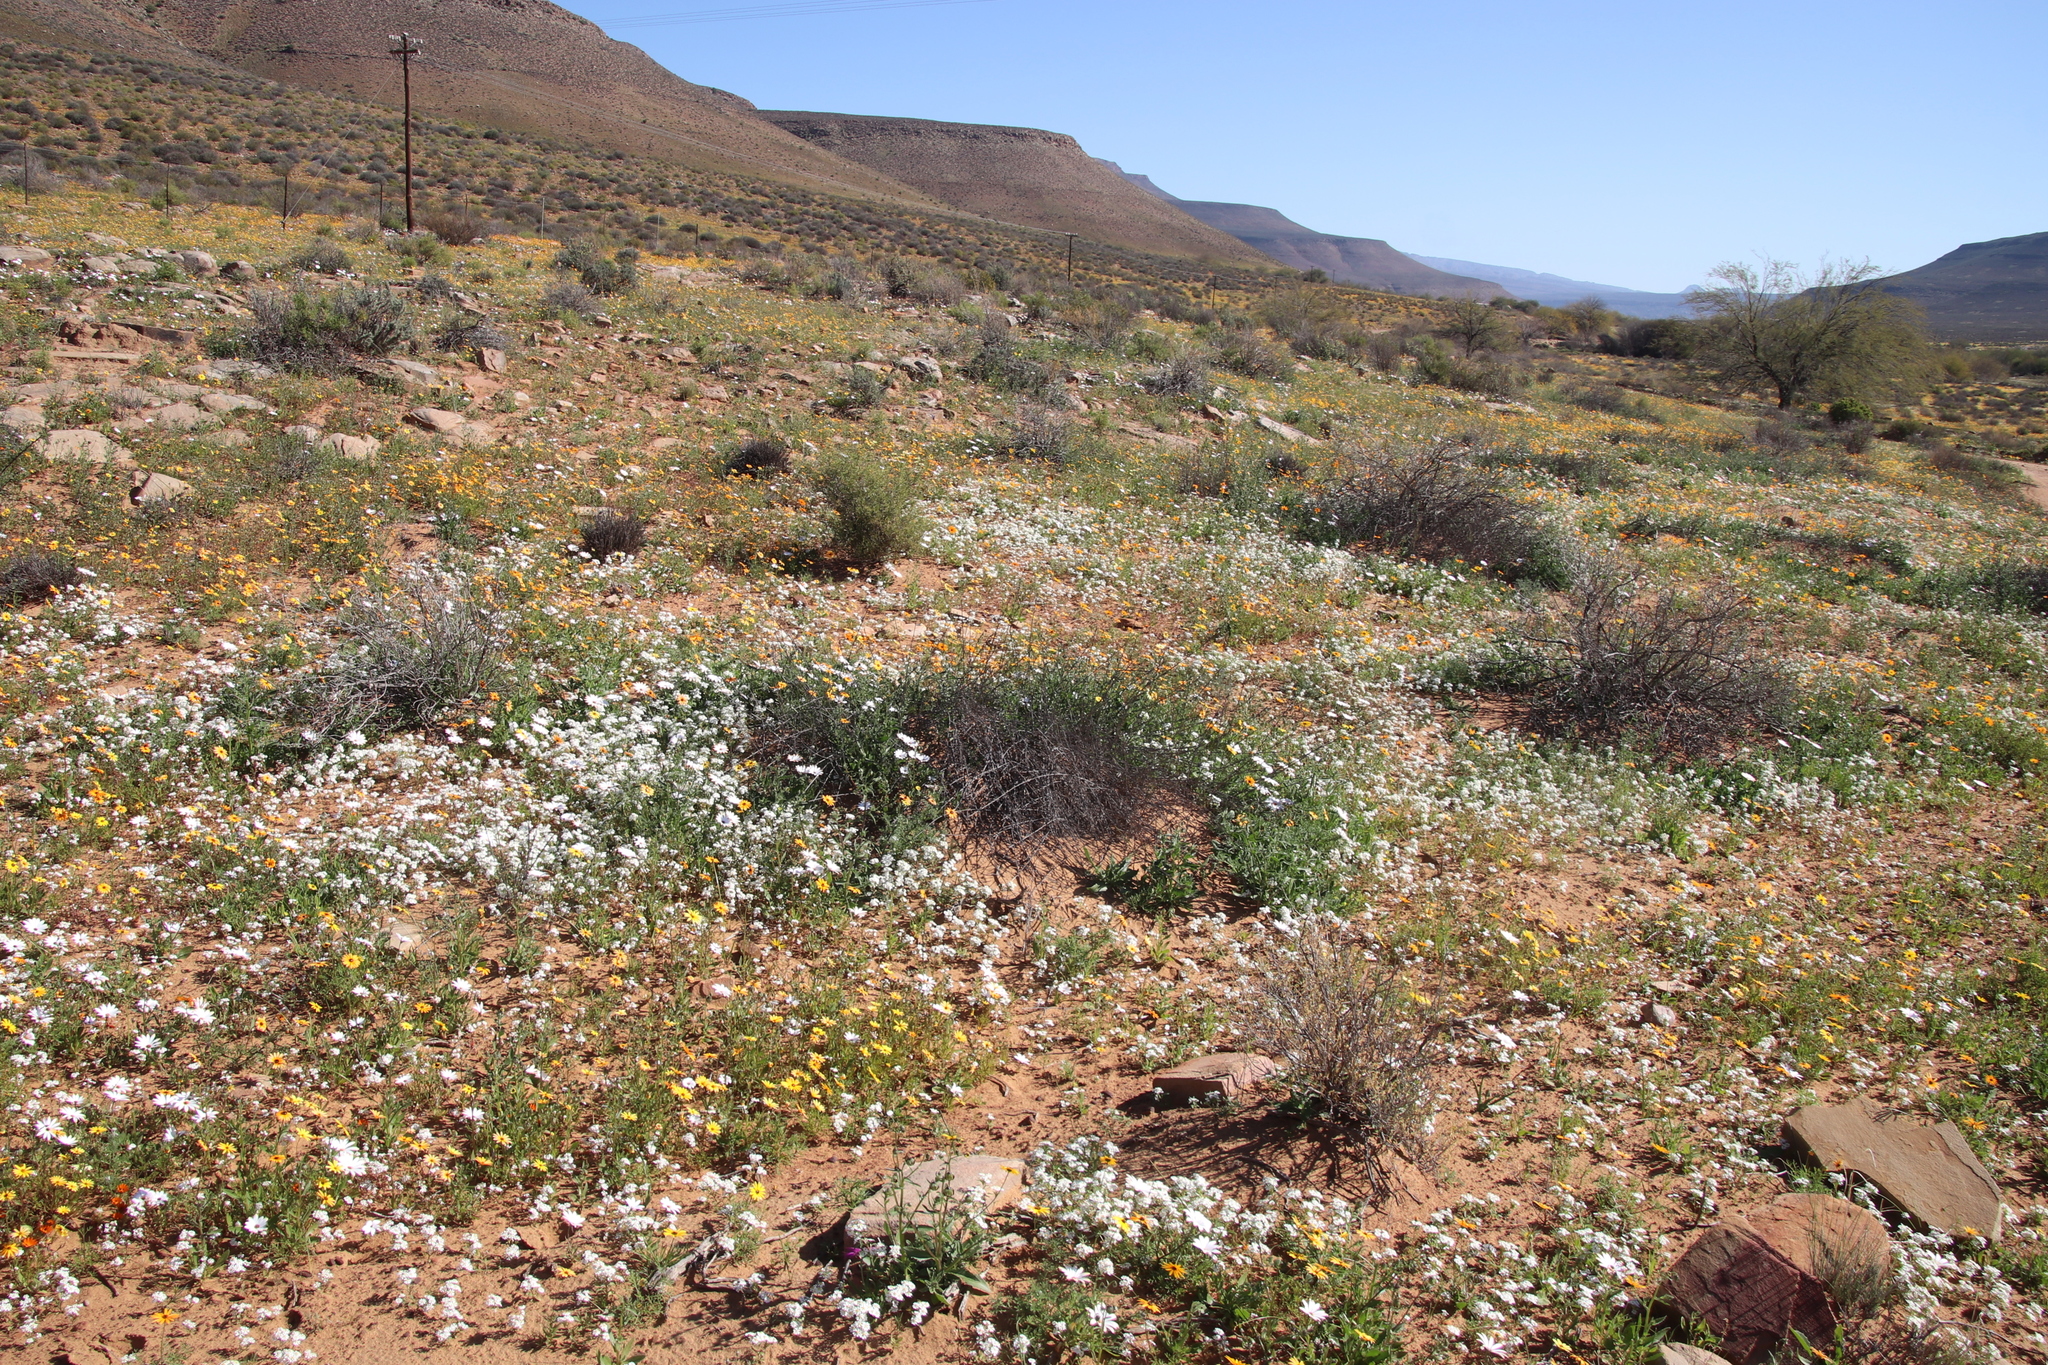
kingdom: Plantae
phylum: Tracheophyta
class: Magnoliopsida
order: Lamiales
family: Scrophulariaceae
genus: Zaluzianskya
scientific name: Zaluzianskya affinis
